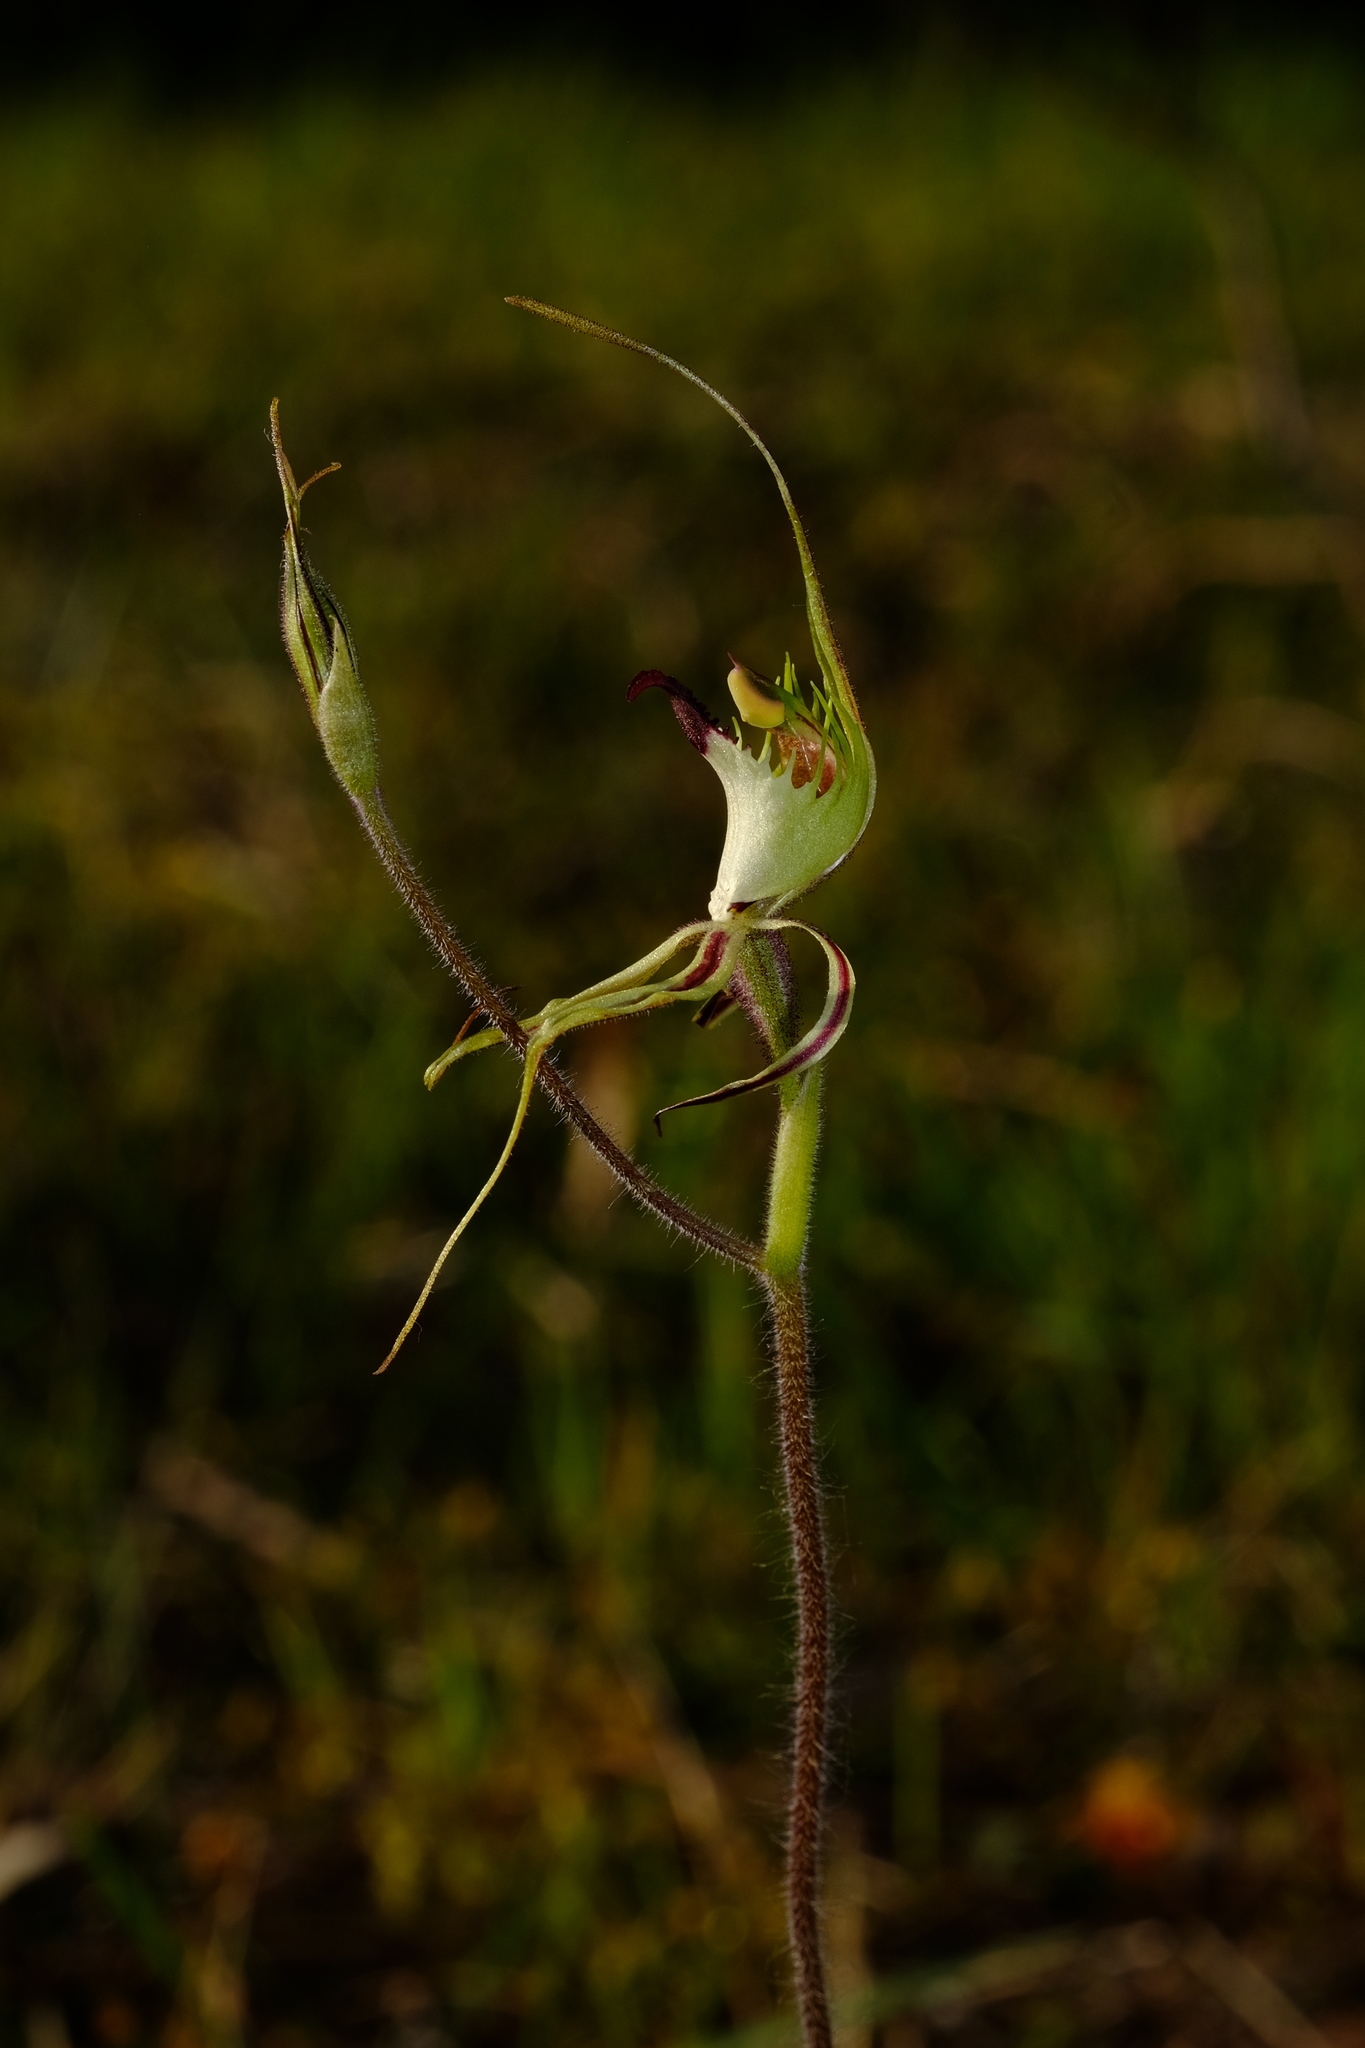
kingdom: Plantae
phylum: Tracheophyta
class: Liliopsida
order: Asparagales
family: Orchidaceae
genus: Caladenia
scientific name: Caladenia tentaculata
